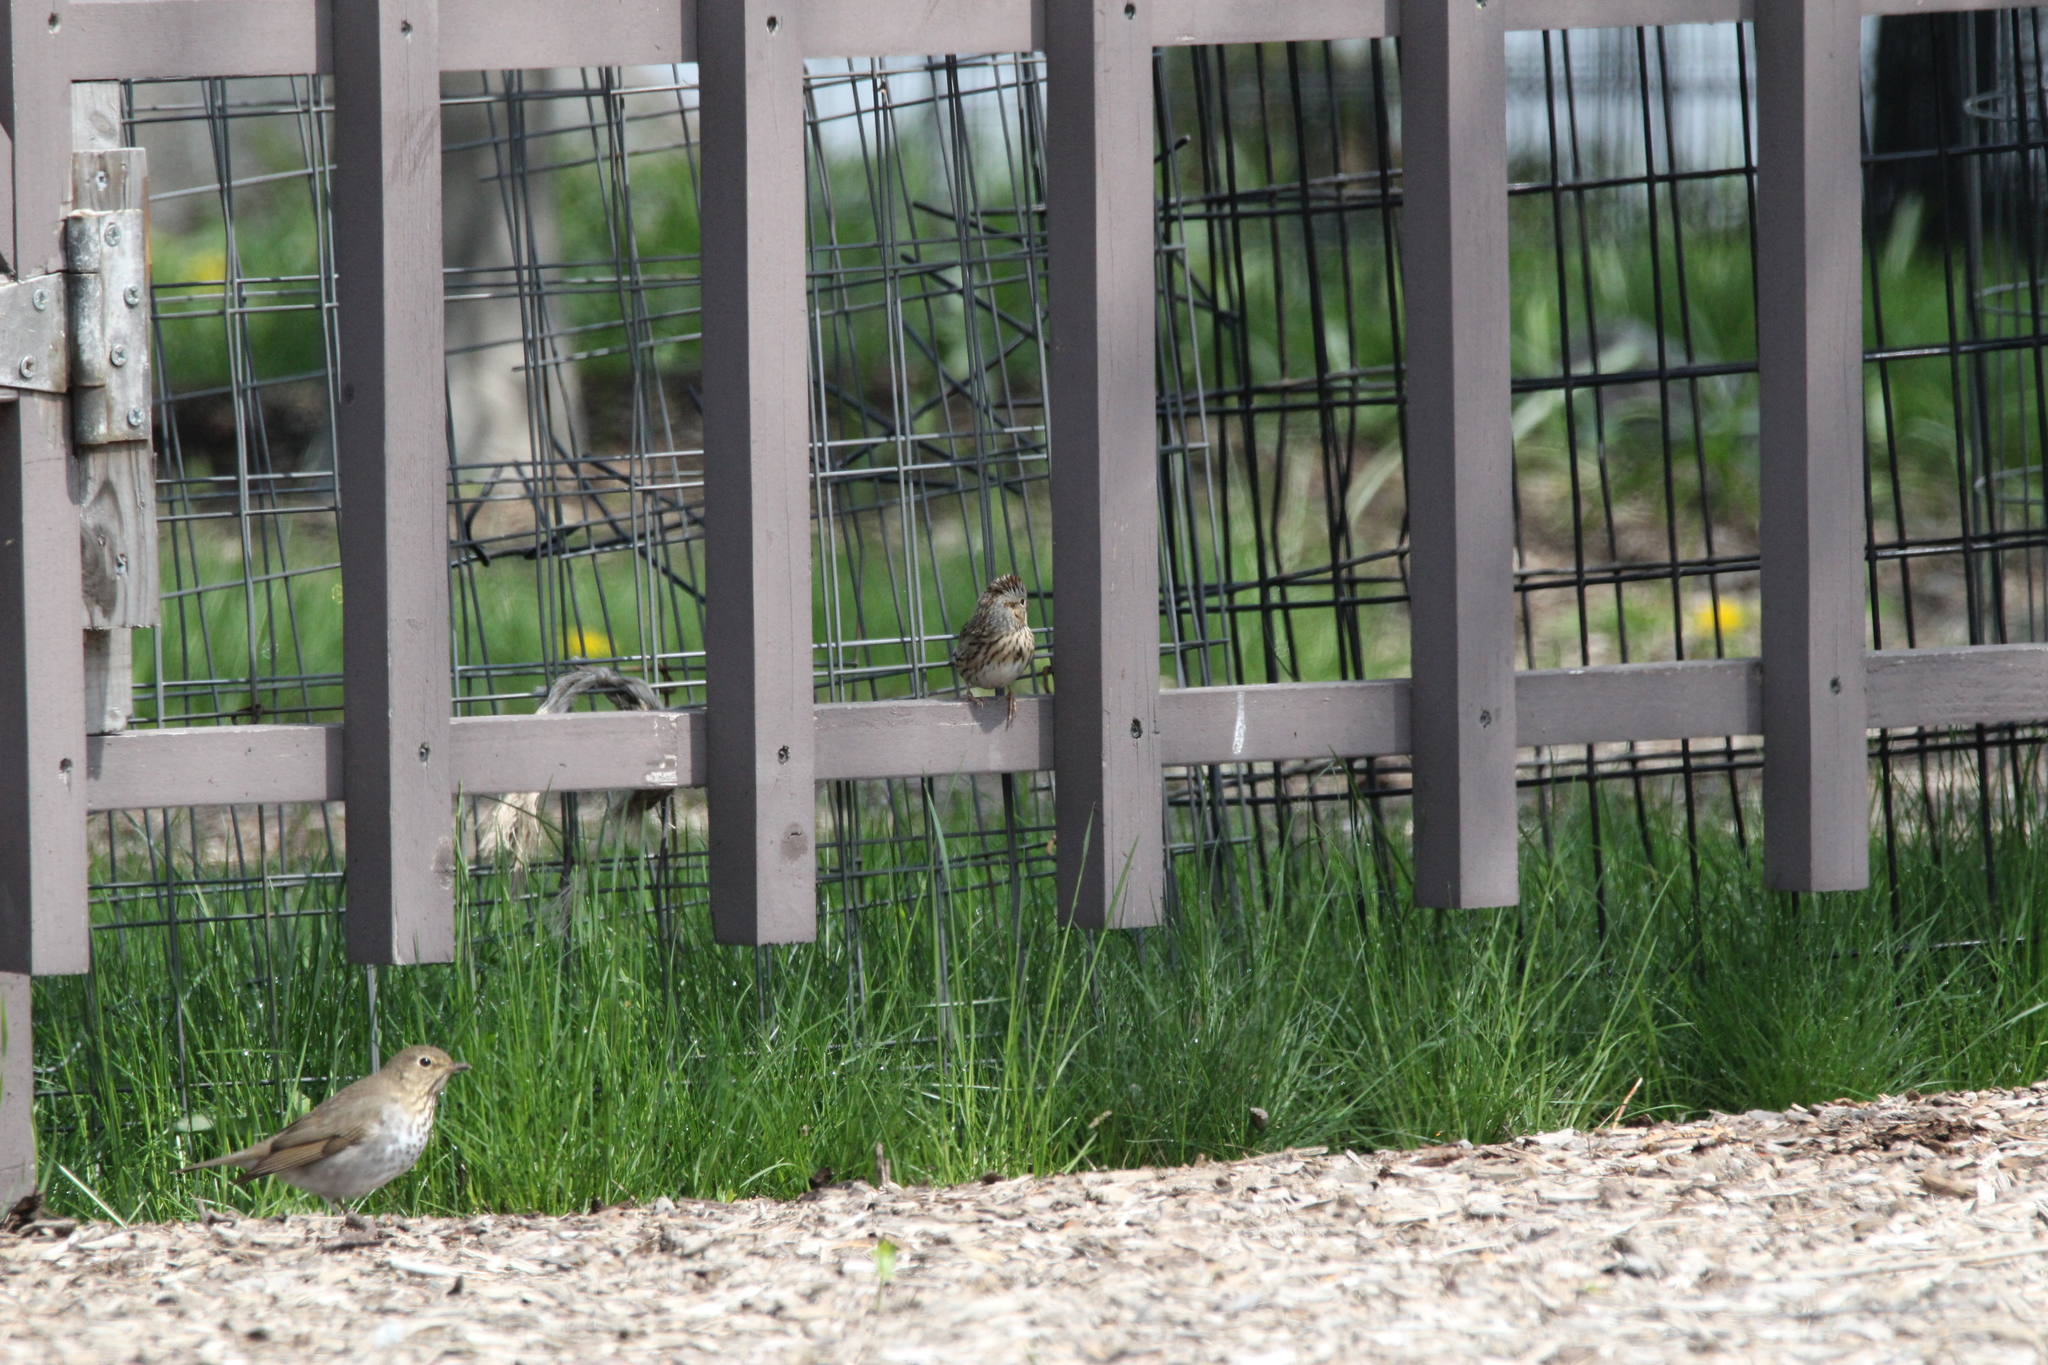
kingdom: Animalia
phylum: Chordata
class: Aves
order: Passeriformes
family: Turdidae
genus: Catharus
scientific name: Catharus ustulatus
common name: Swainson's thrush
